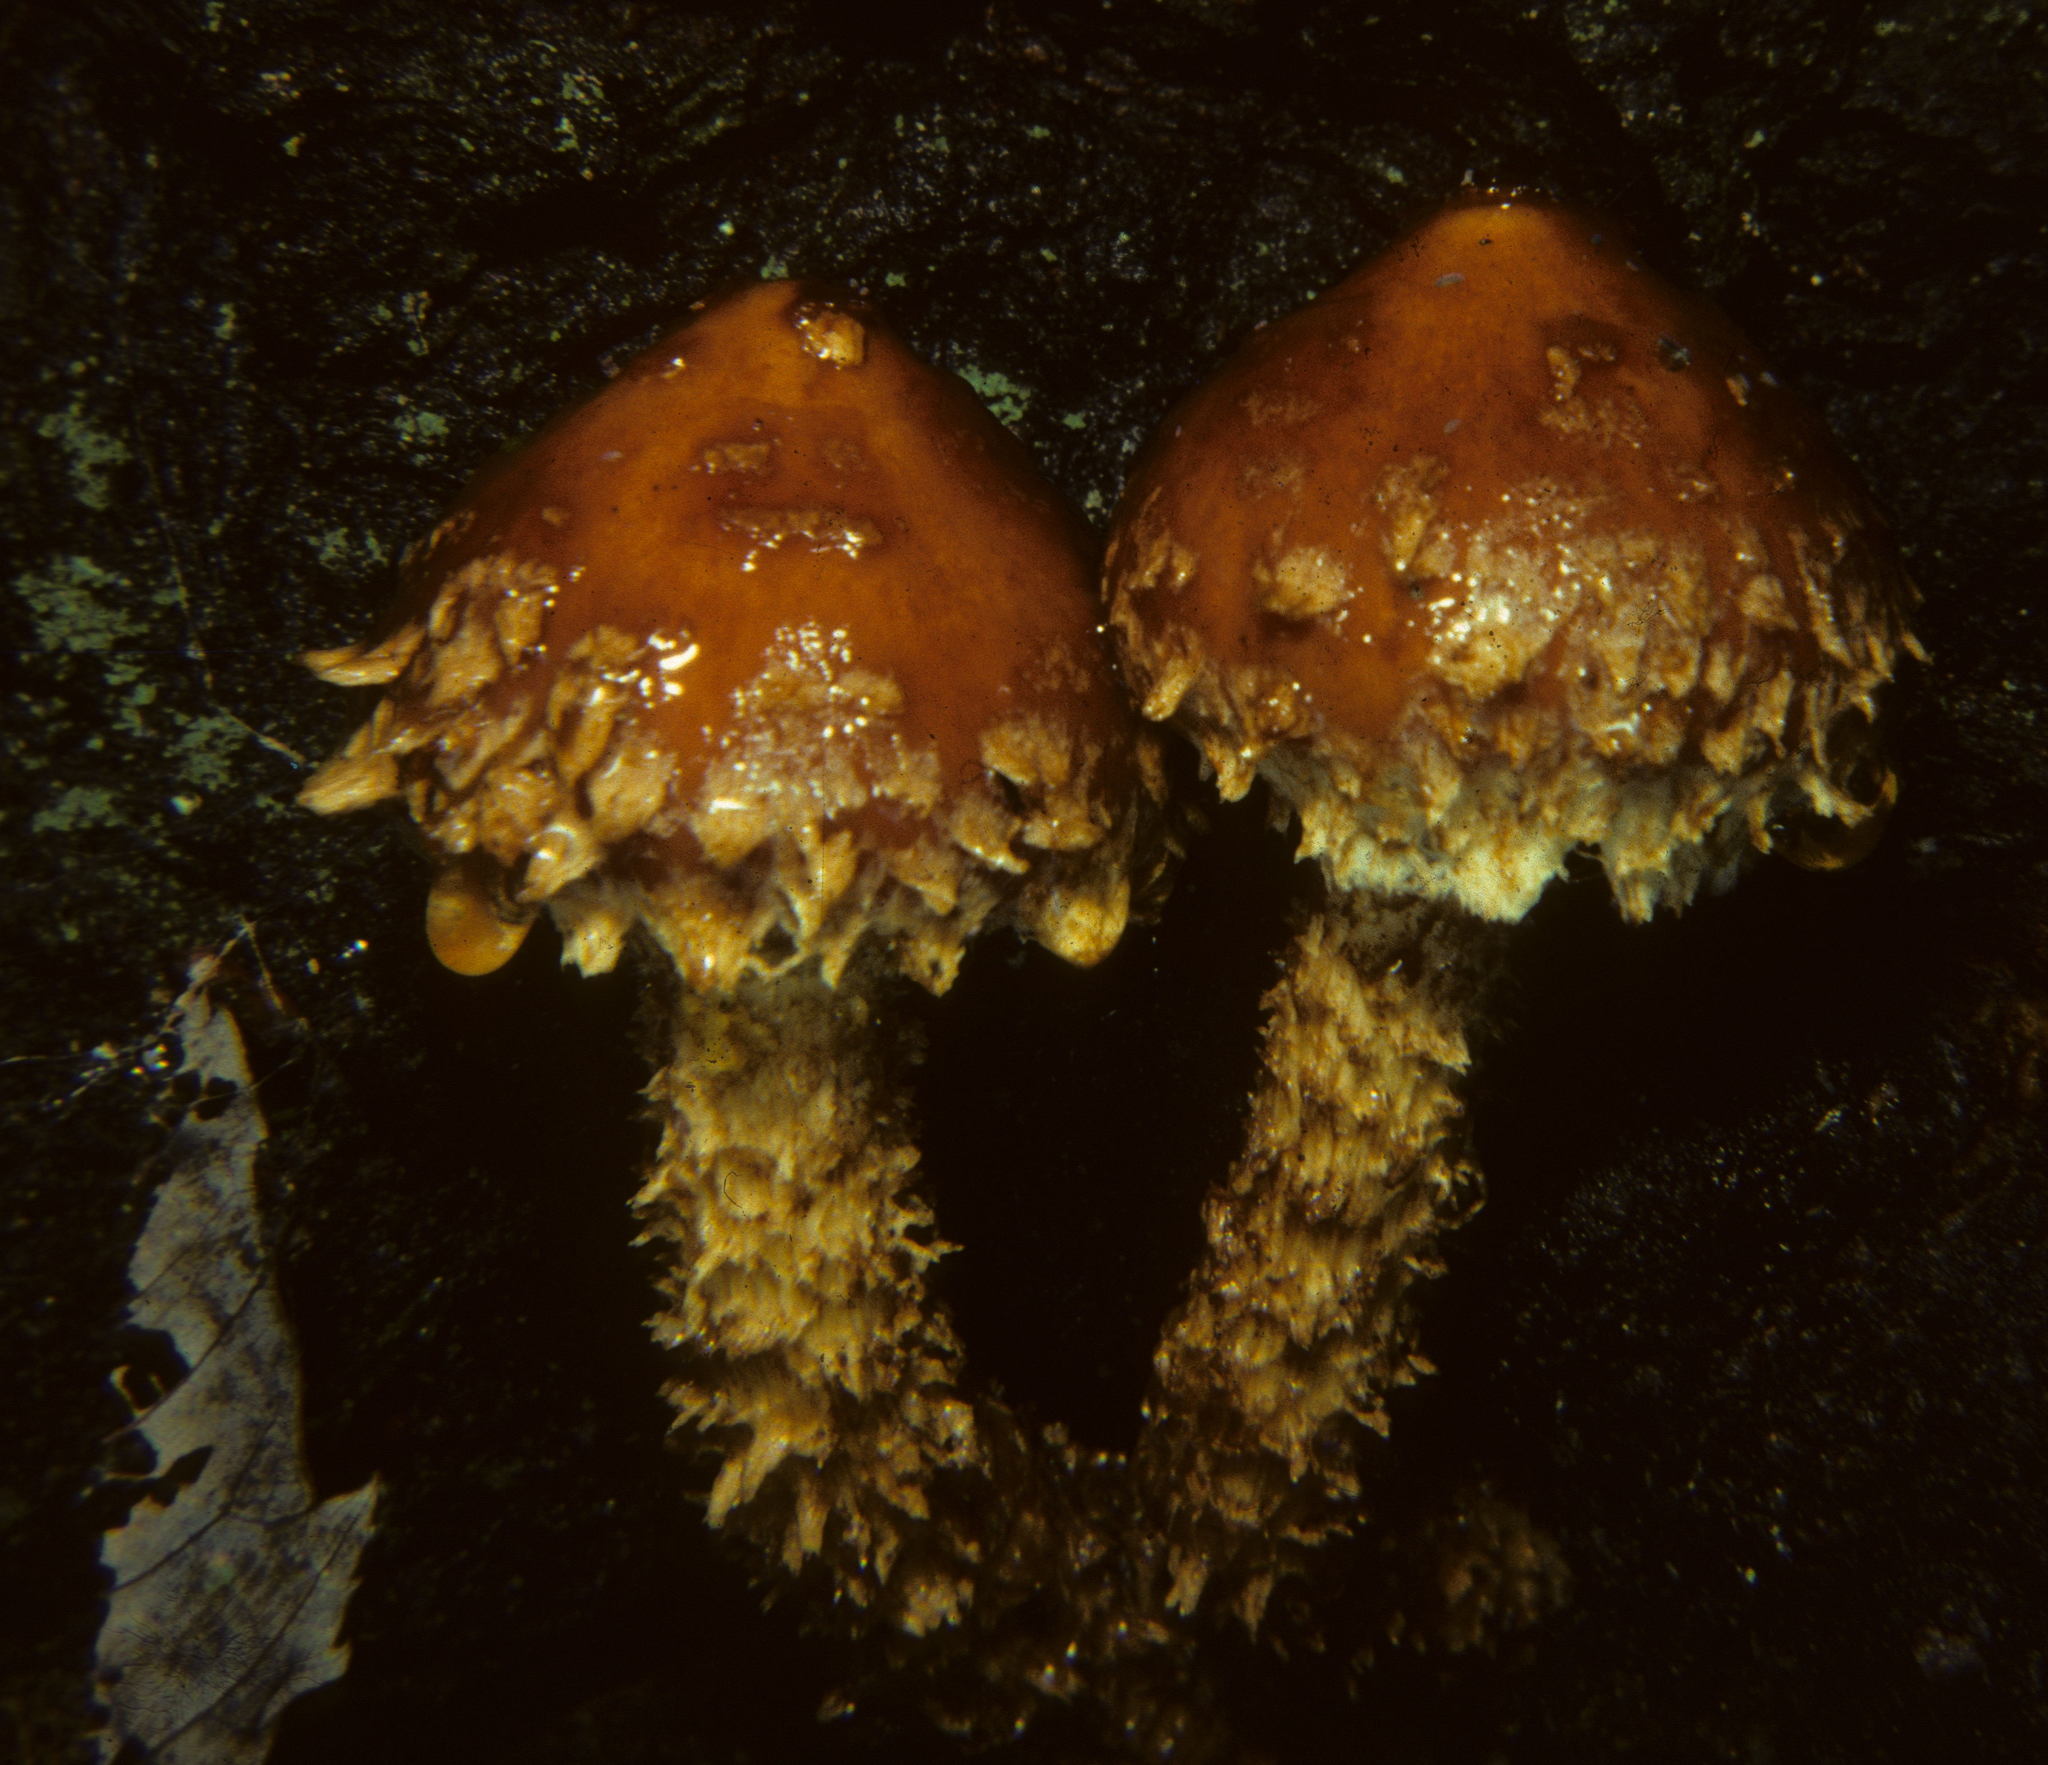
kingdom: Fungi
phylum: Basidiomycota
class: Agaricomycetes
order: Agaricales
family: Tubariaceae
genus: Hemistropharia
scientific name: Hemistropharia albocrenulata
